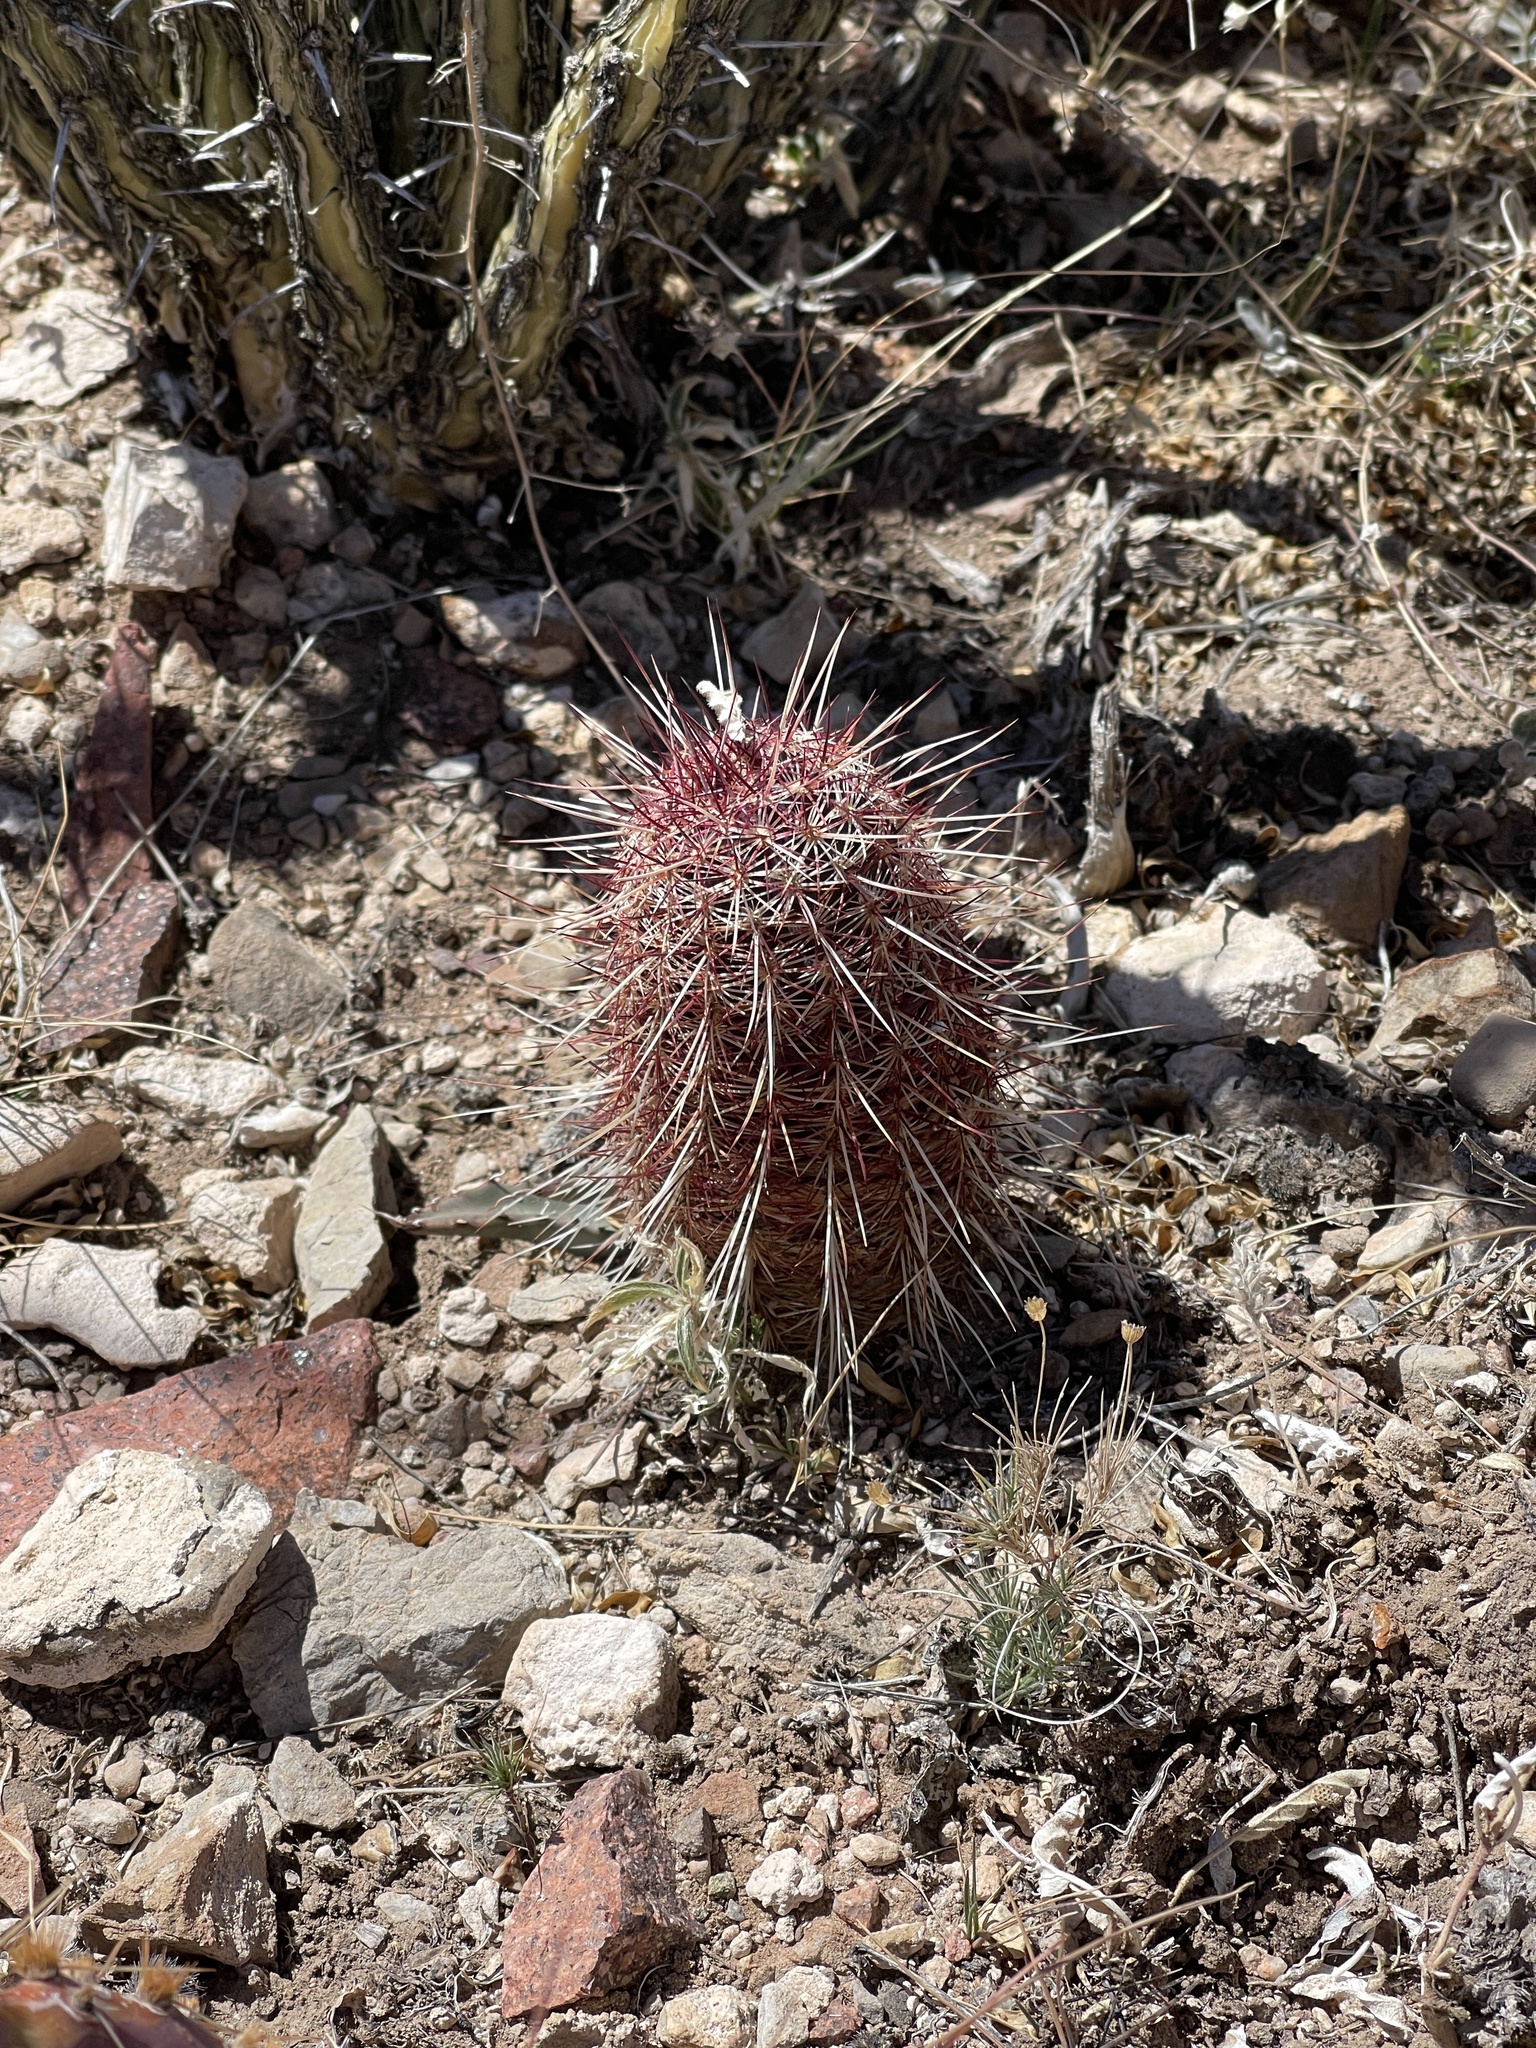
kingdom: Plantae
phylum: Tracheophyta
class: Magnoliopsida
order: Caryophyllales
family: Cactaceae
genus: Echinocereus
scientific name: Echinocereus viridiflorus
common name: Nylon hedgehog cactus
